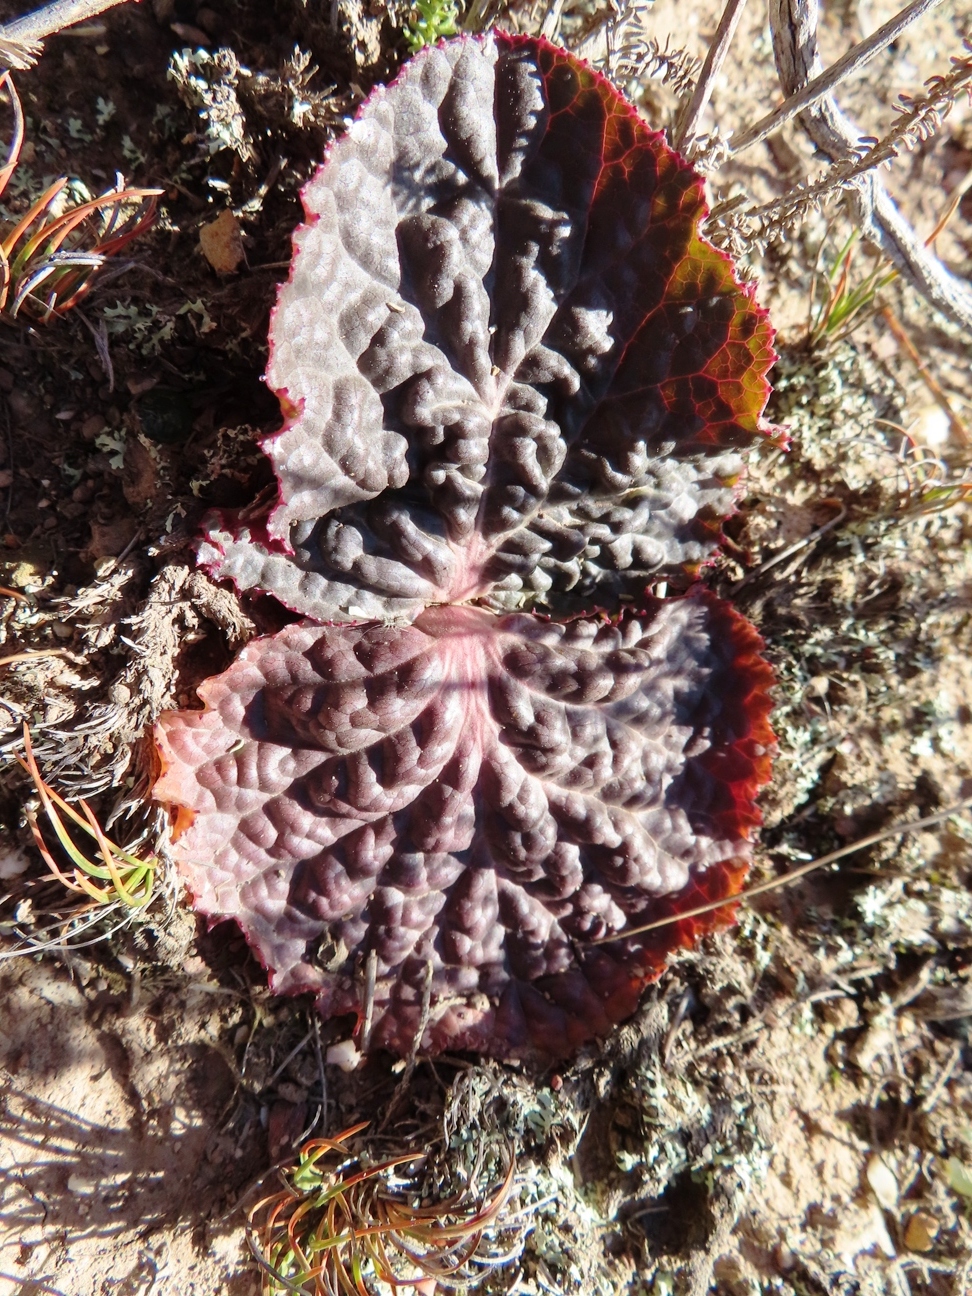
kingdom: Plantae
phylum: Tracheophyta
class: Magnoliopsida
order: Apiales
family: Apiaceae
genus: Lichtensteinia
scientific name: Lichtensteinia latifolia
